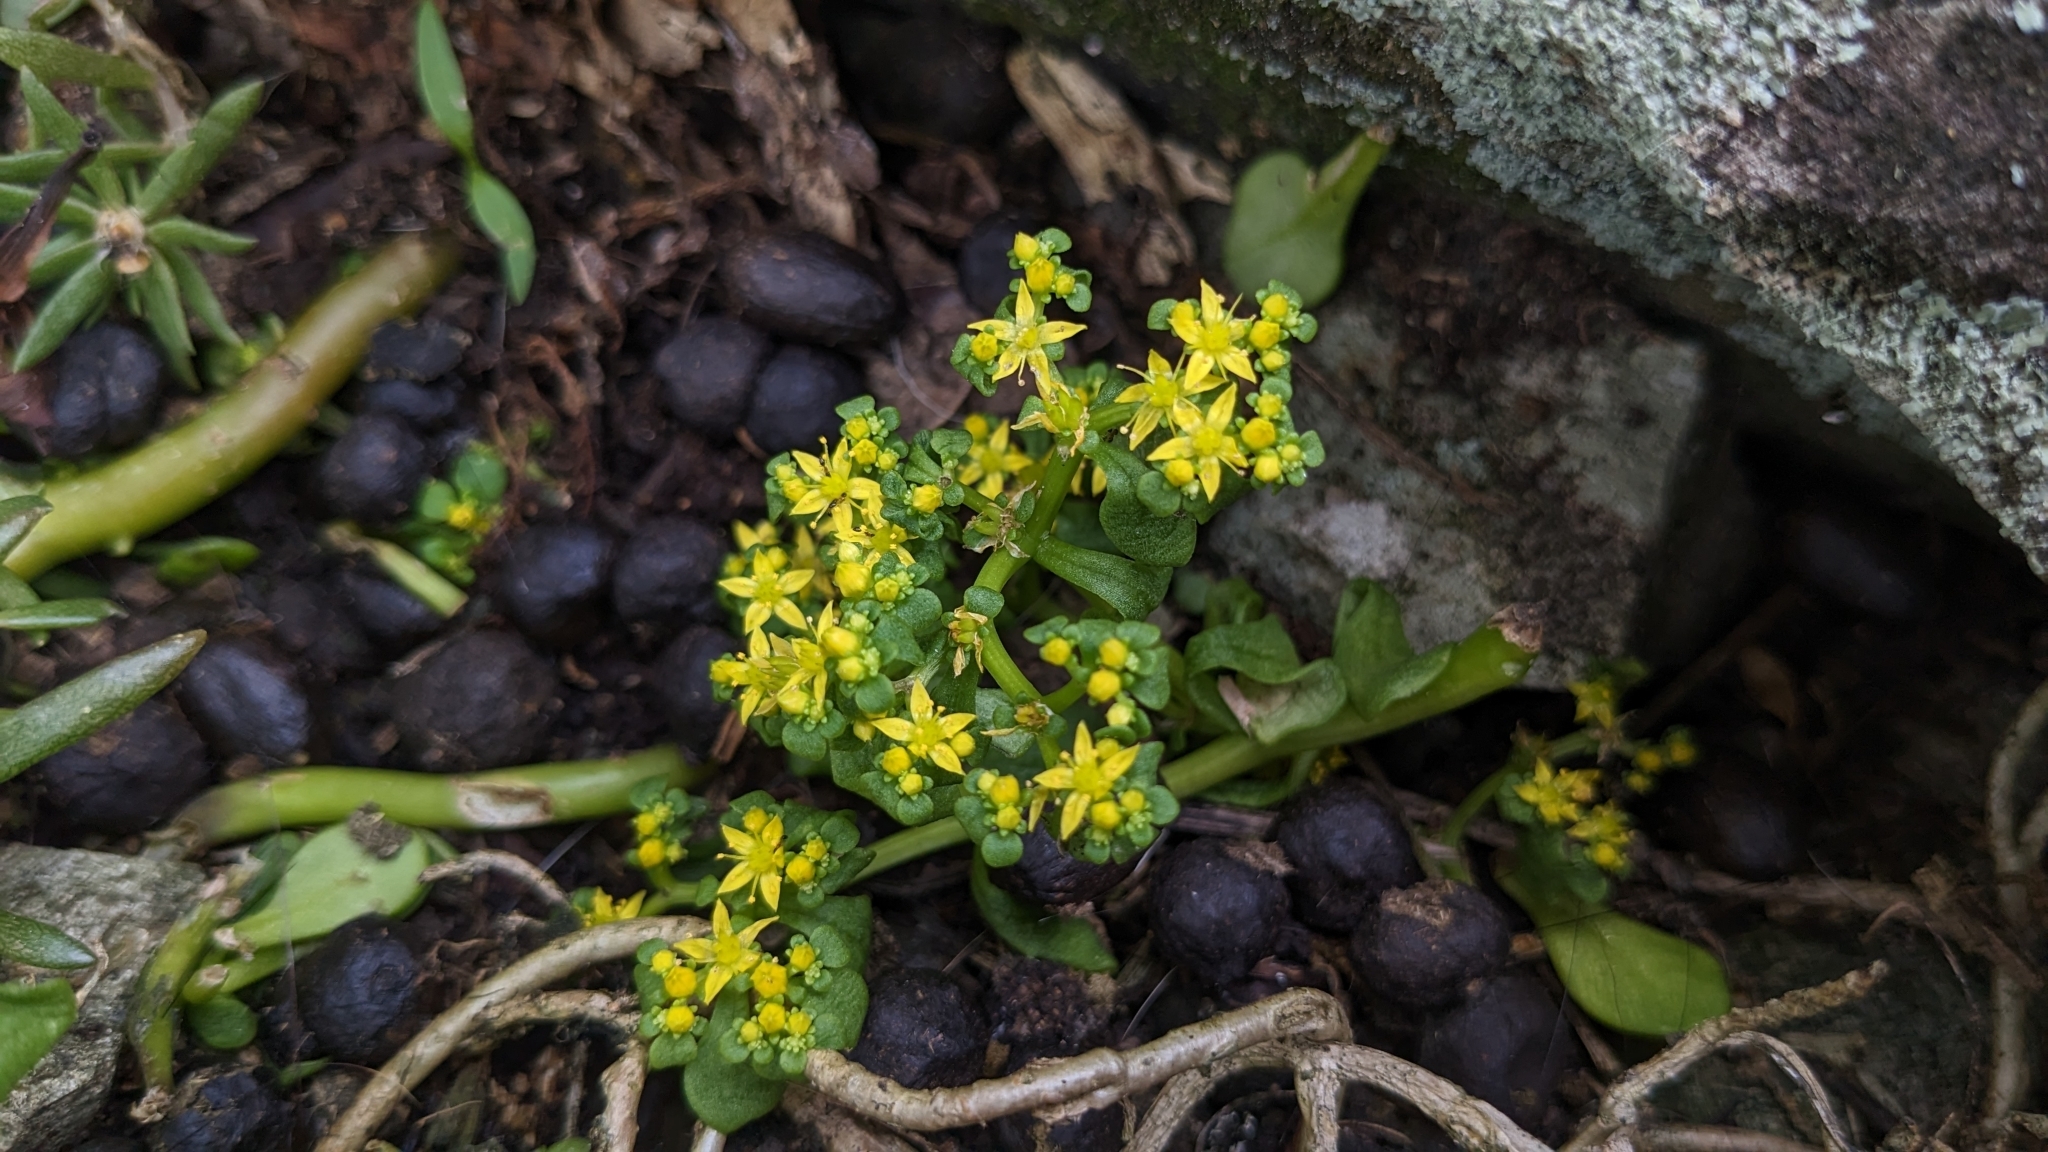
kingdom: Plantae
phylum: Tracheophyta
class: Magnoliopsida
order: Saxifragales
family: Crassulaceae
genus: Sedum
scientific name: Sedum formosanum
